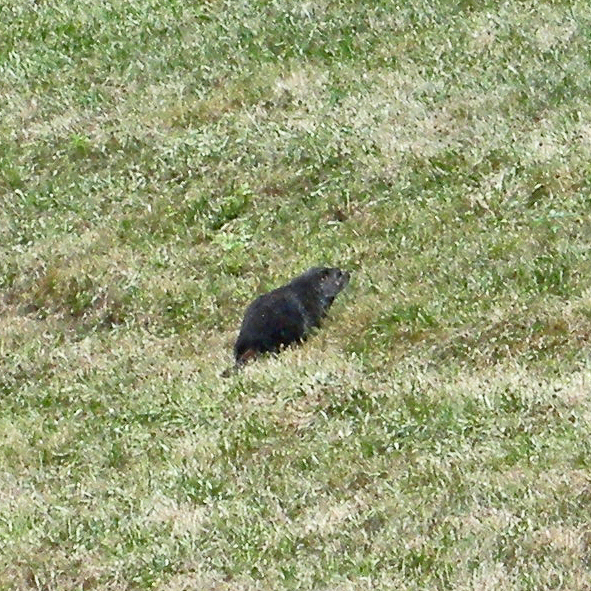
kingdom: Animalia
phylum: Chordata
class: Mammalia
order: Rodentia
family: Sciuridae
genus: Marmota
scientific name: Marmota monax
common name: Groundhog
